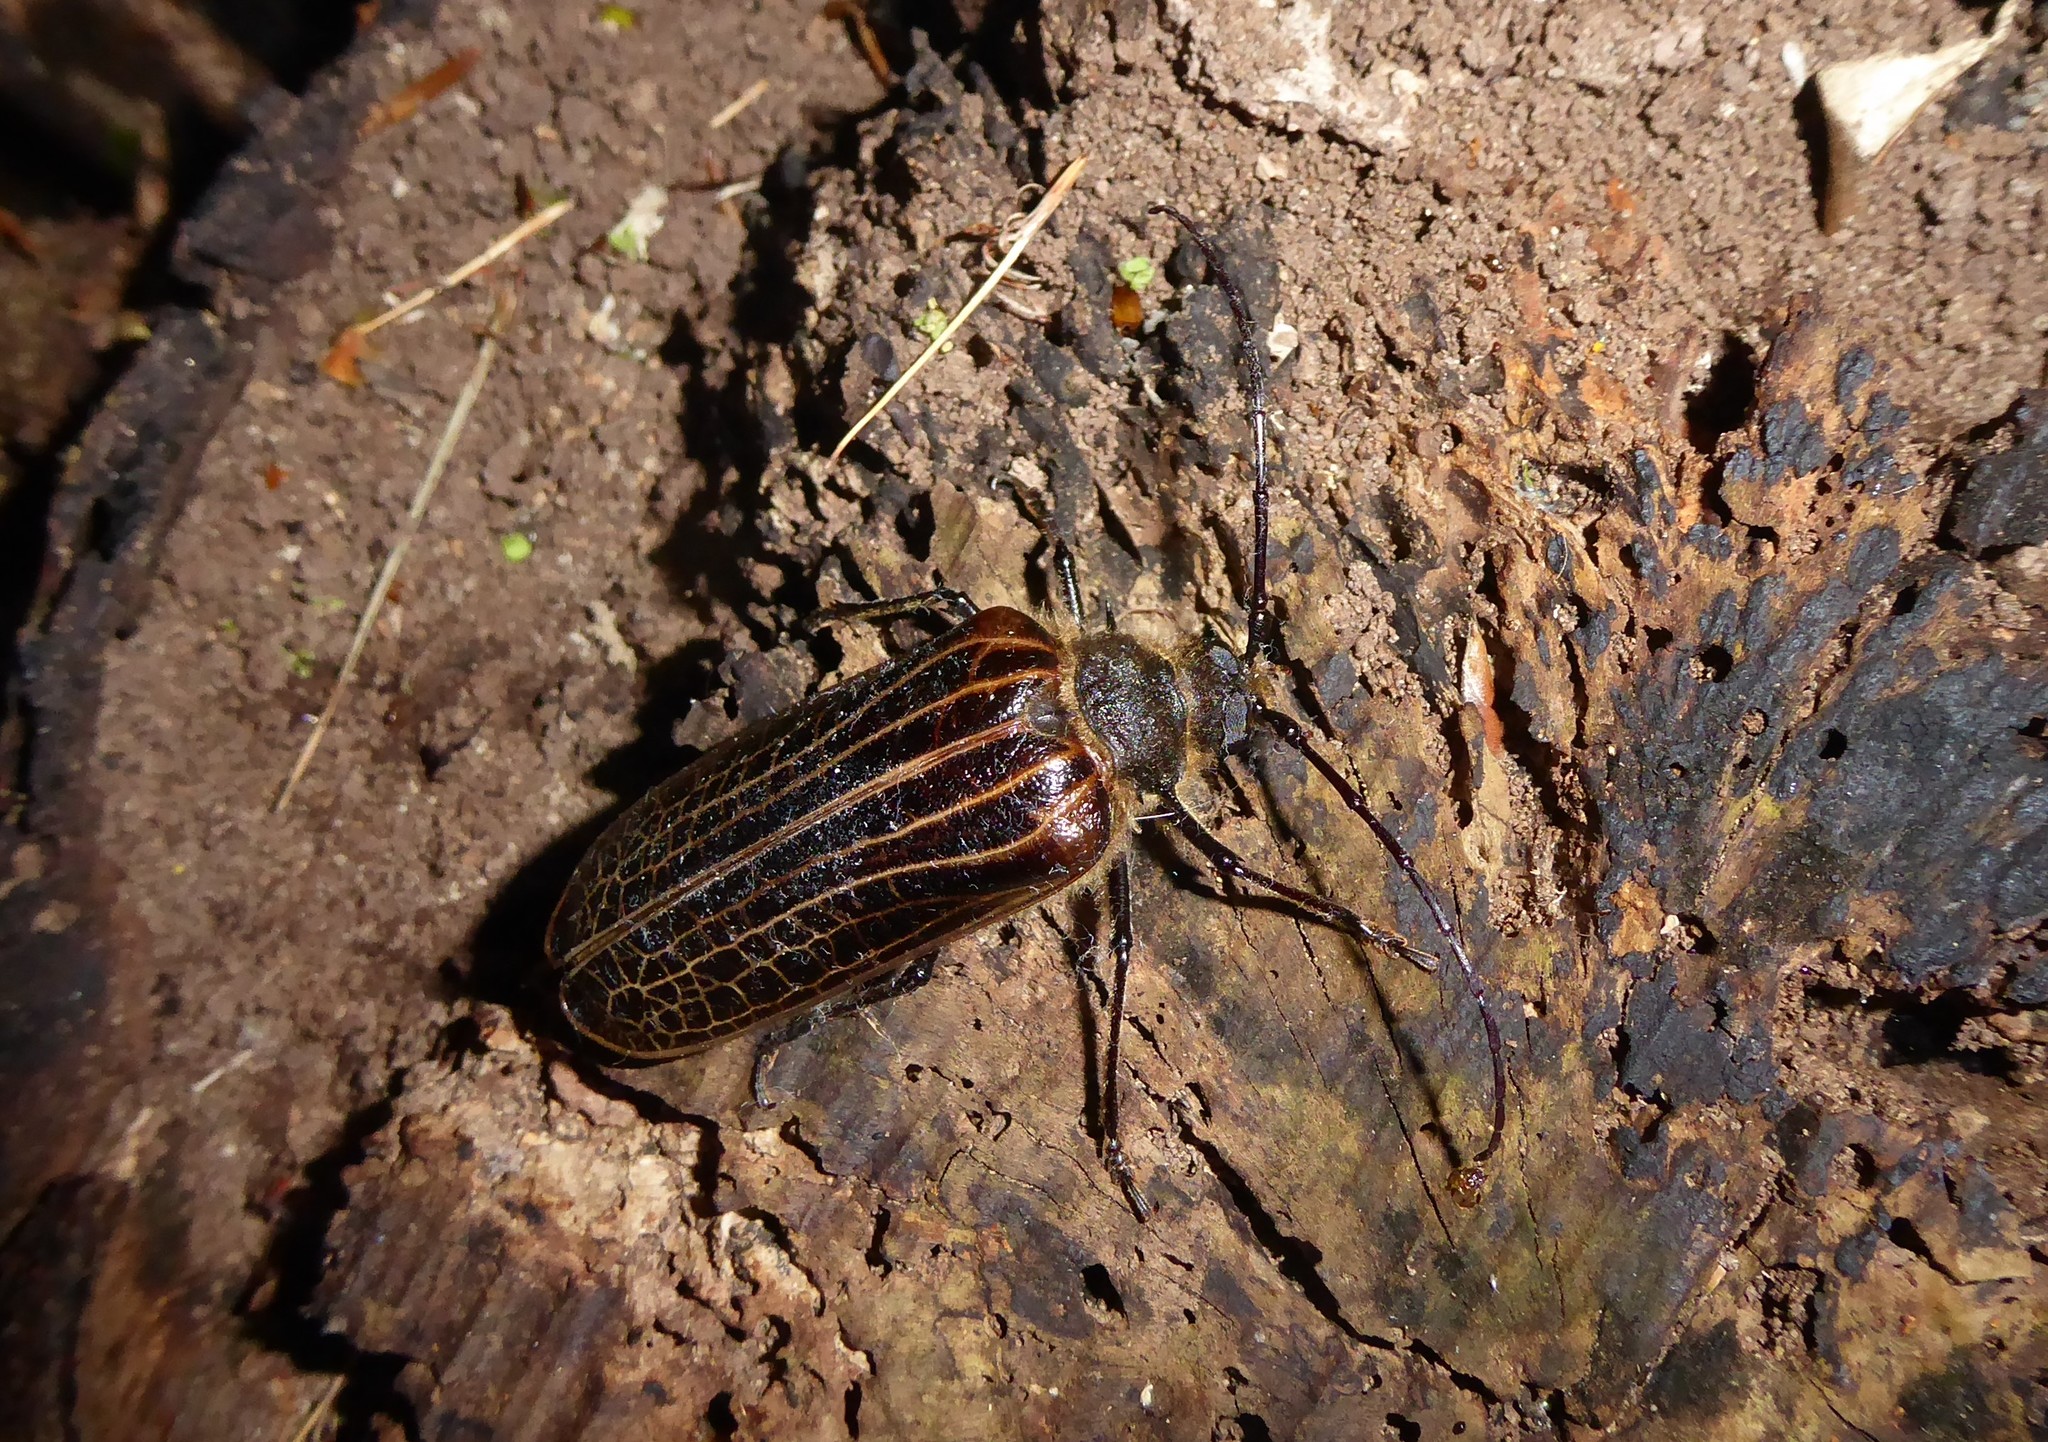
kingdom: Animalia
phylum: Arthropoda
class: Insecta
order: Coleoptera
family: Cerambycidae
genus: Prionoplus
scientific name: Prionoplus reticularis
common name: Huhu beetle
